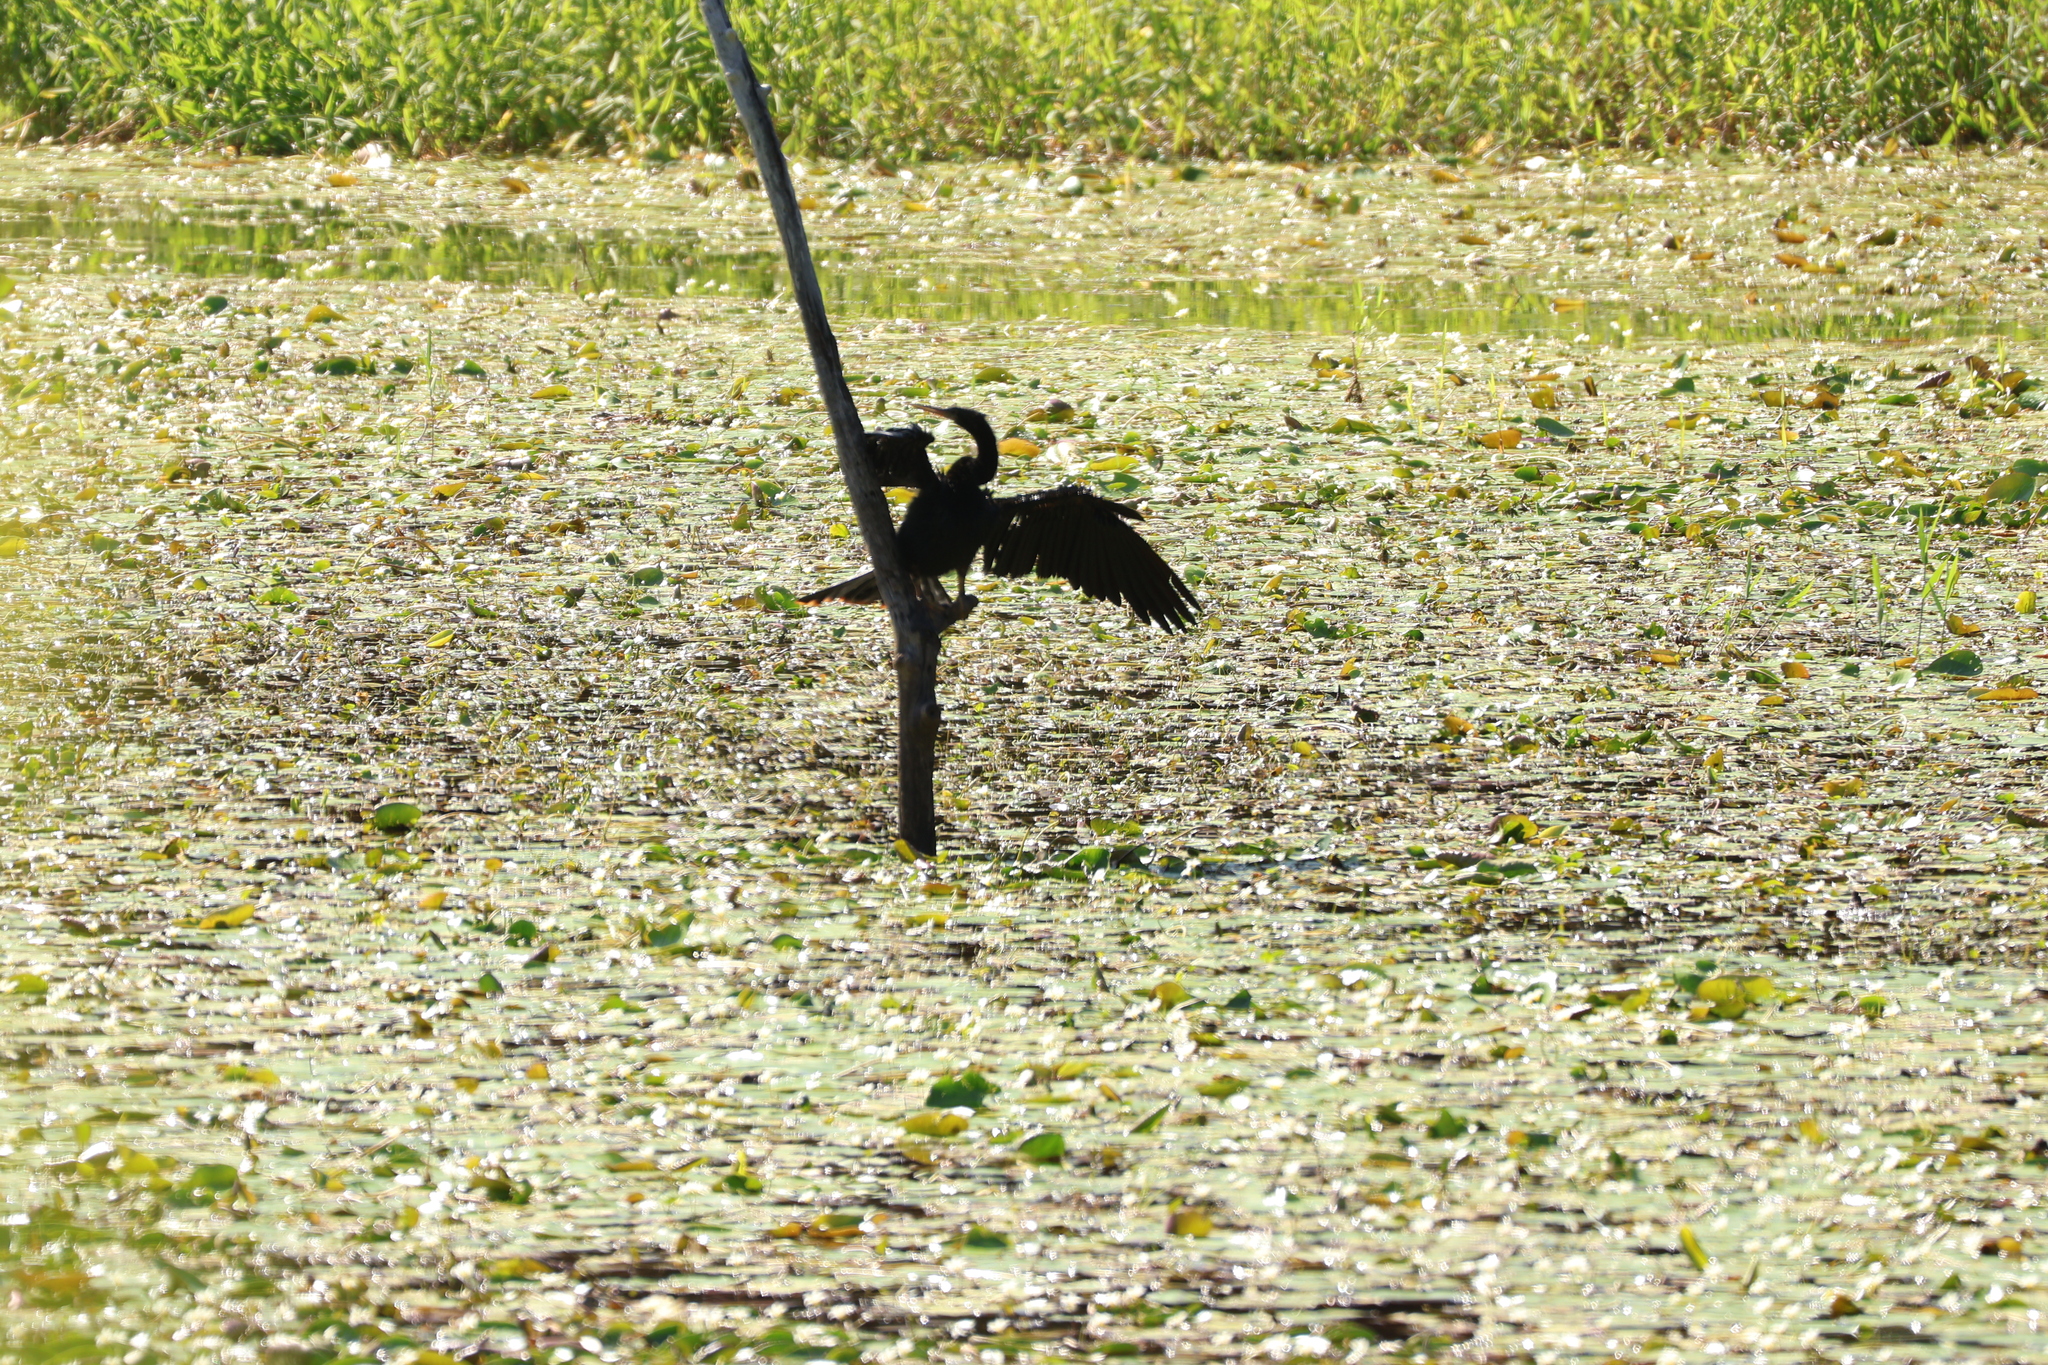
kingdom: Animalia
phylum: Chordata
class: Aves
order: Suliformes
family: Anhingidae
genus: Anhinga
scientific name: Anhinga anhinga
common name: Anhinga
